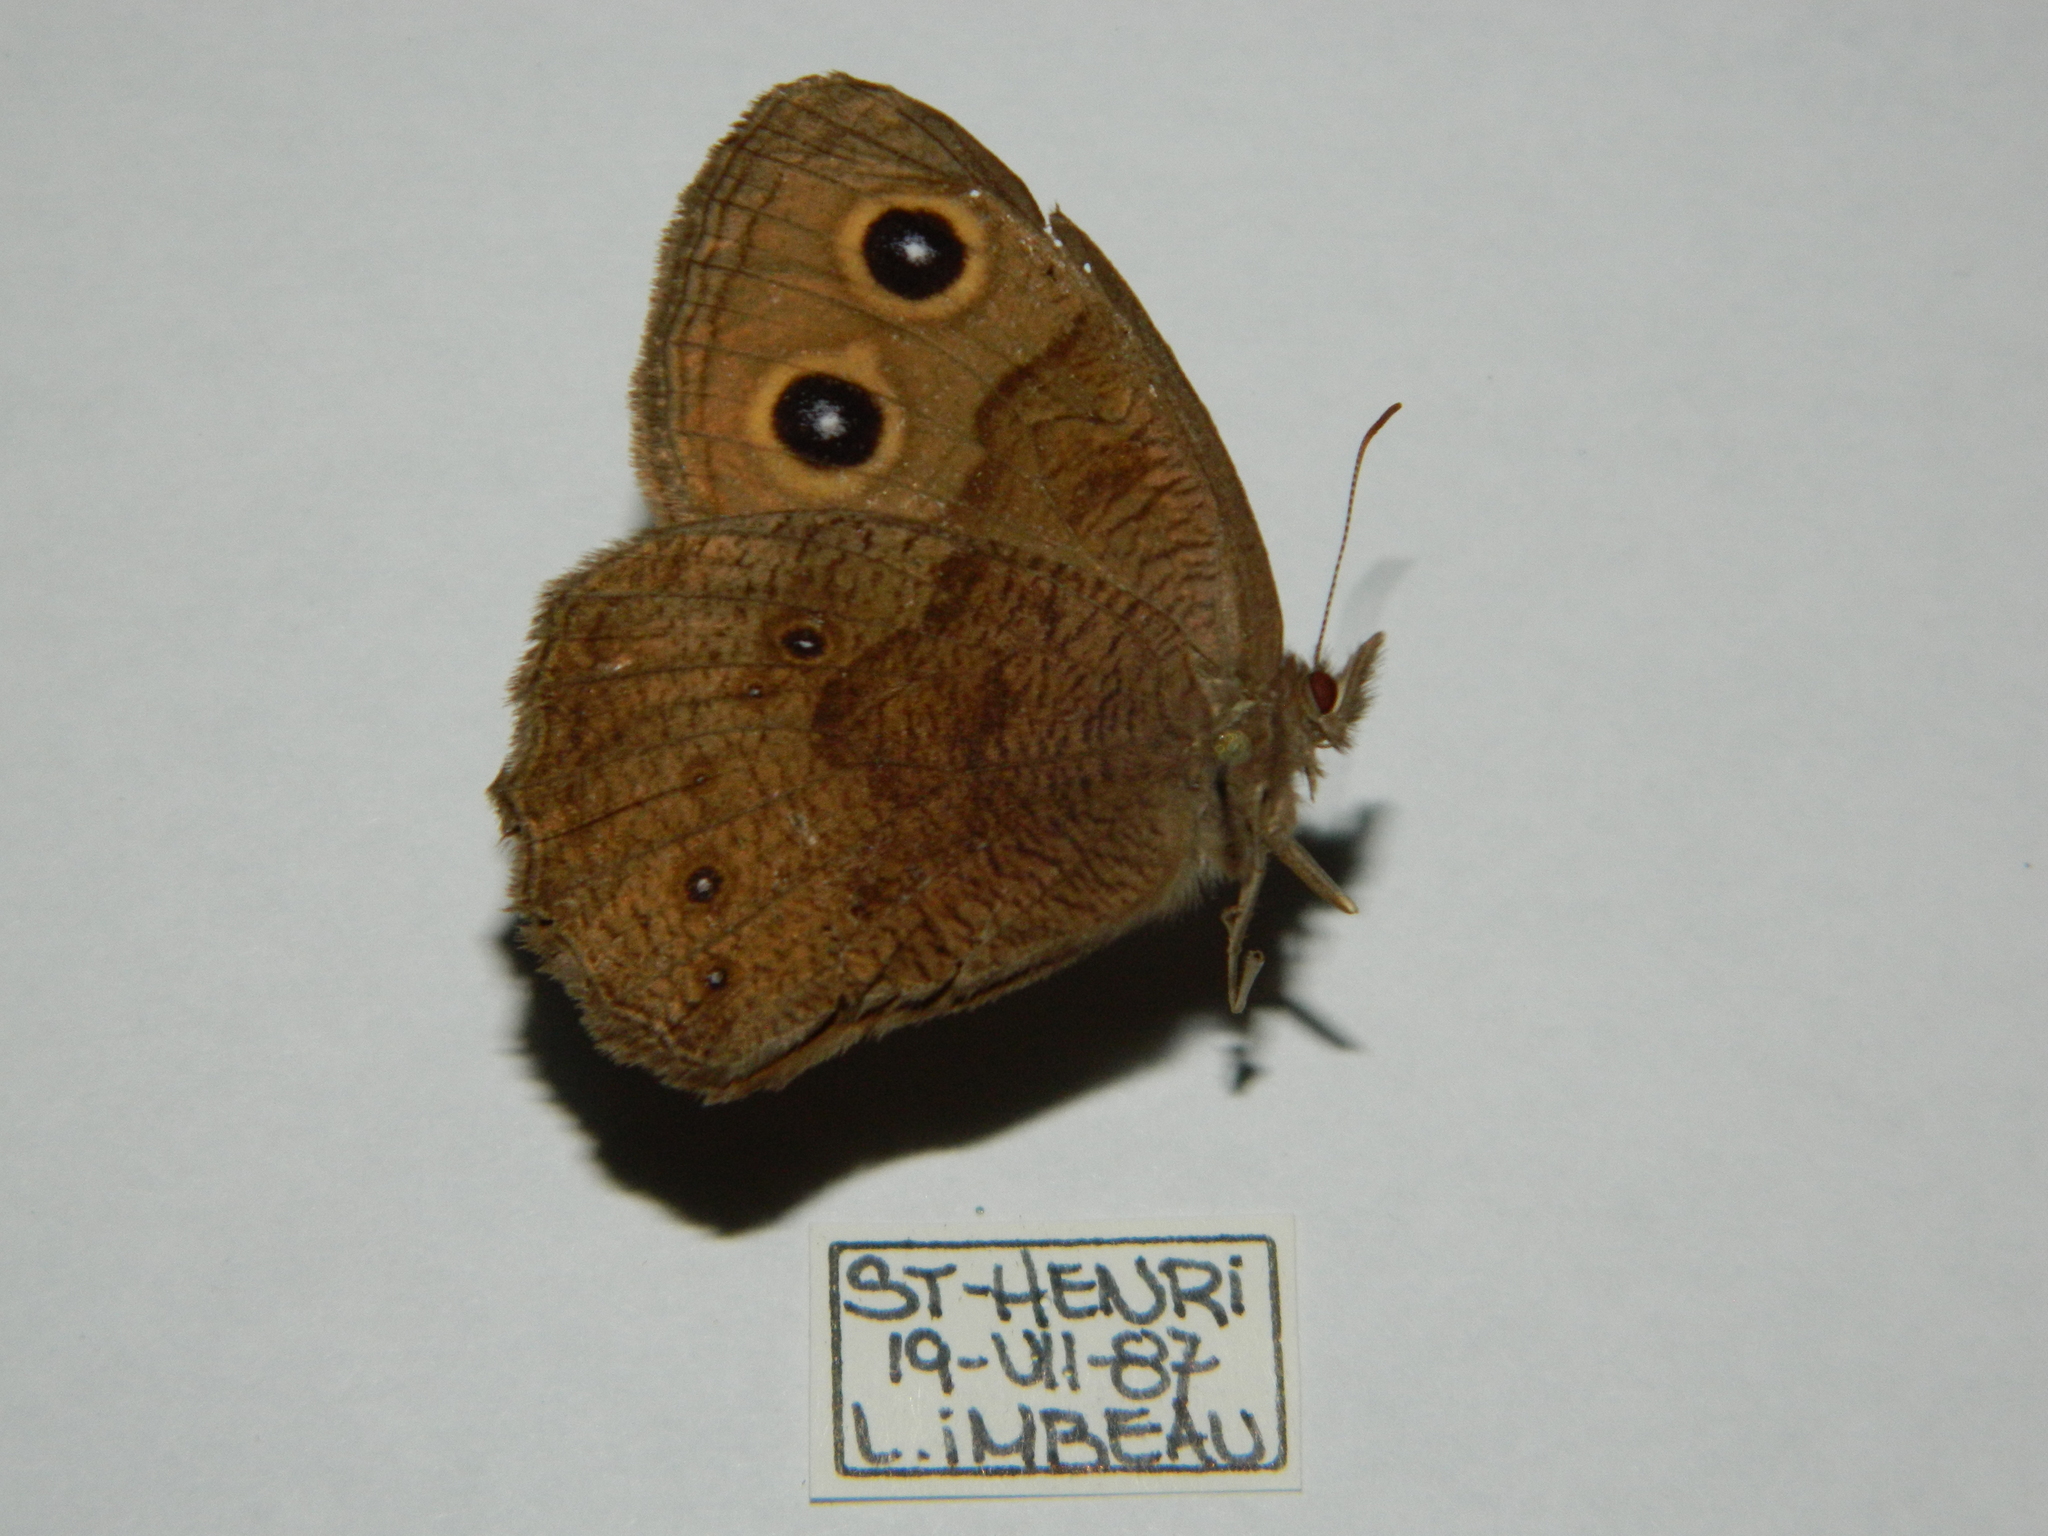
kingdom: Animalia
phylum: Arthropoda
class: Insecta
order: Lepidoptera
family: Nymphalidae
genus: Cercyonis
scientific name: Cercyonis pegala
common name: Common wood-nymph
